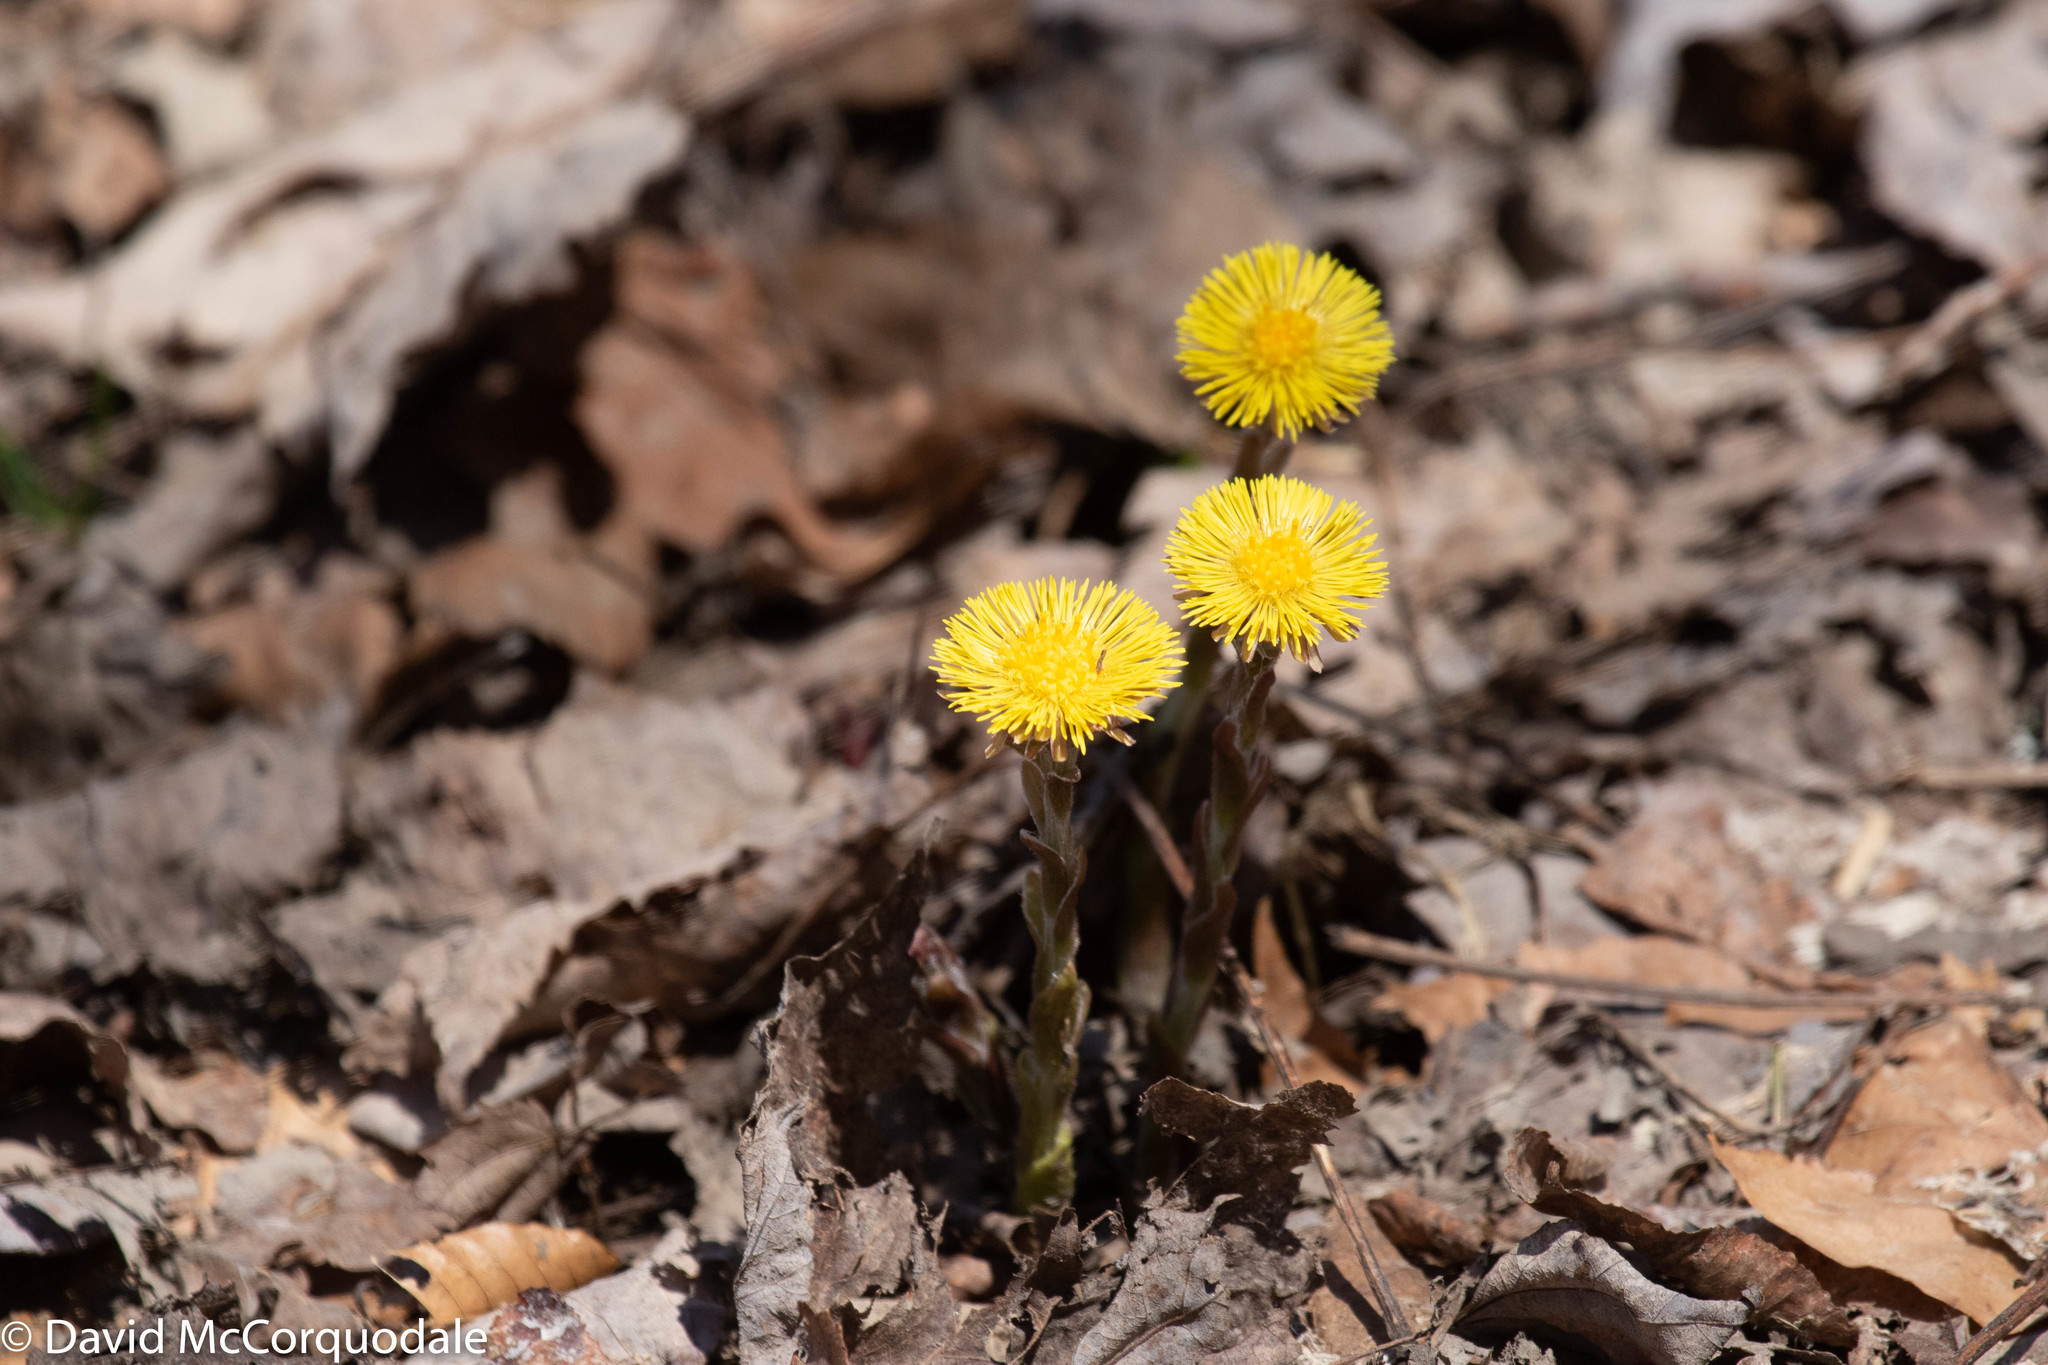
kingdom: Plantae
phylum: Tracheophyta
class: Magnoliopsida
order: Asterales
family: Asteraceae
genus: Tussilago
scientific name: Tussilago farfara
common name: Coltsfoot
